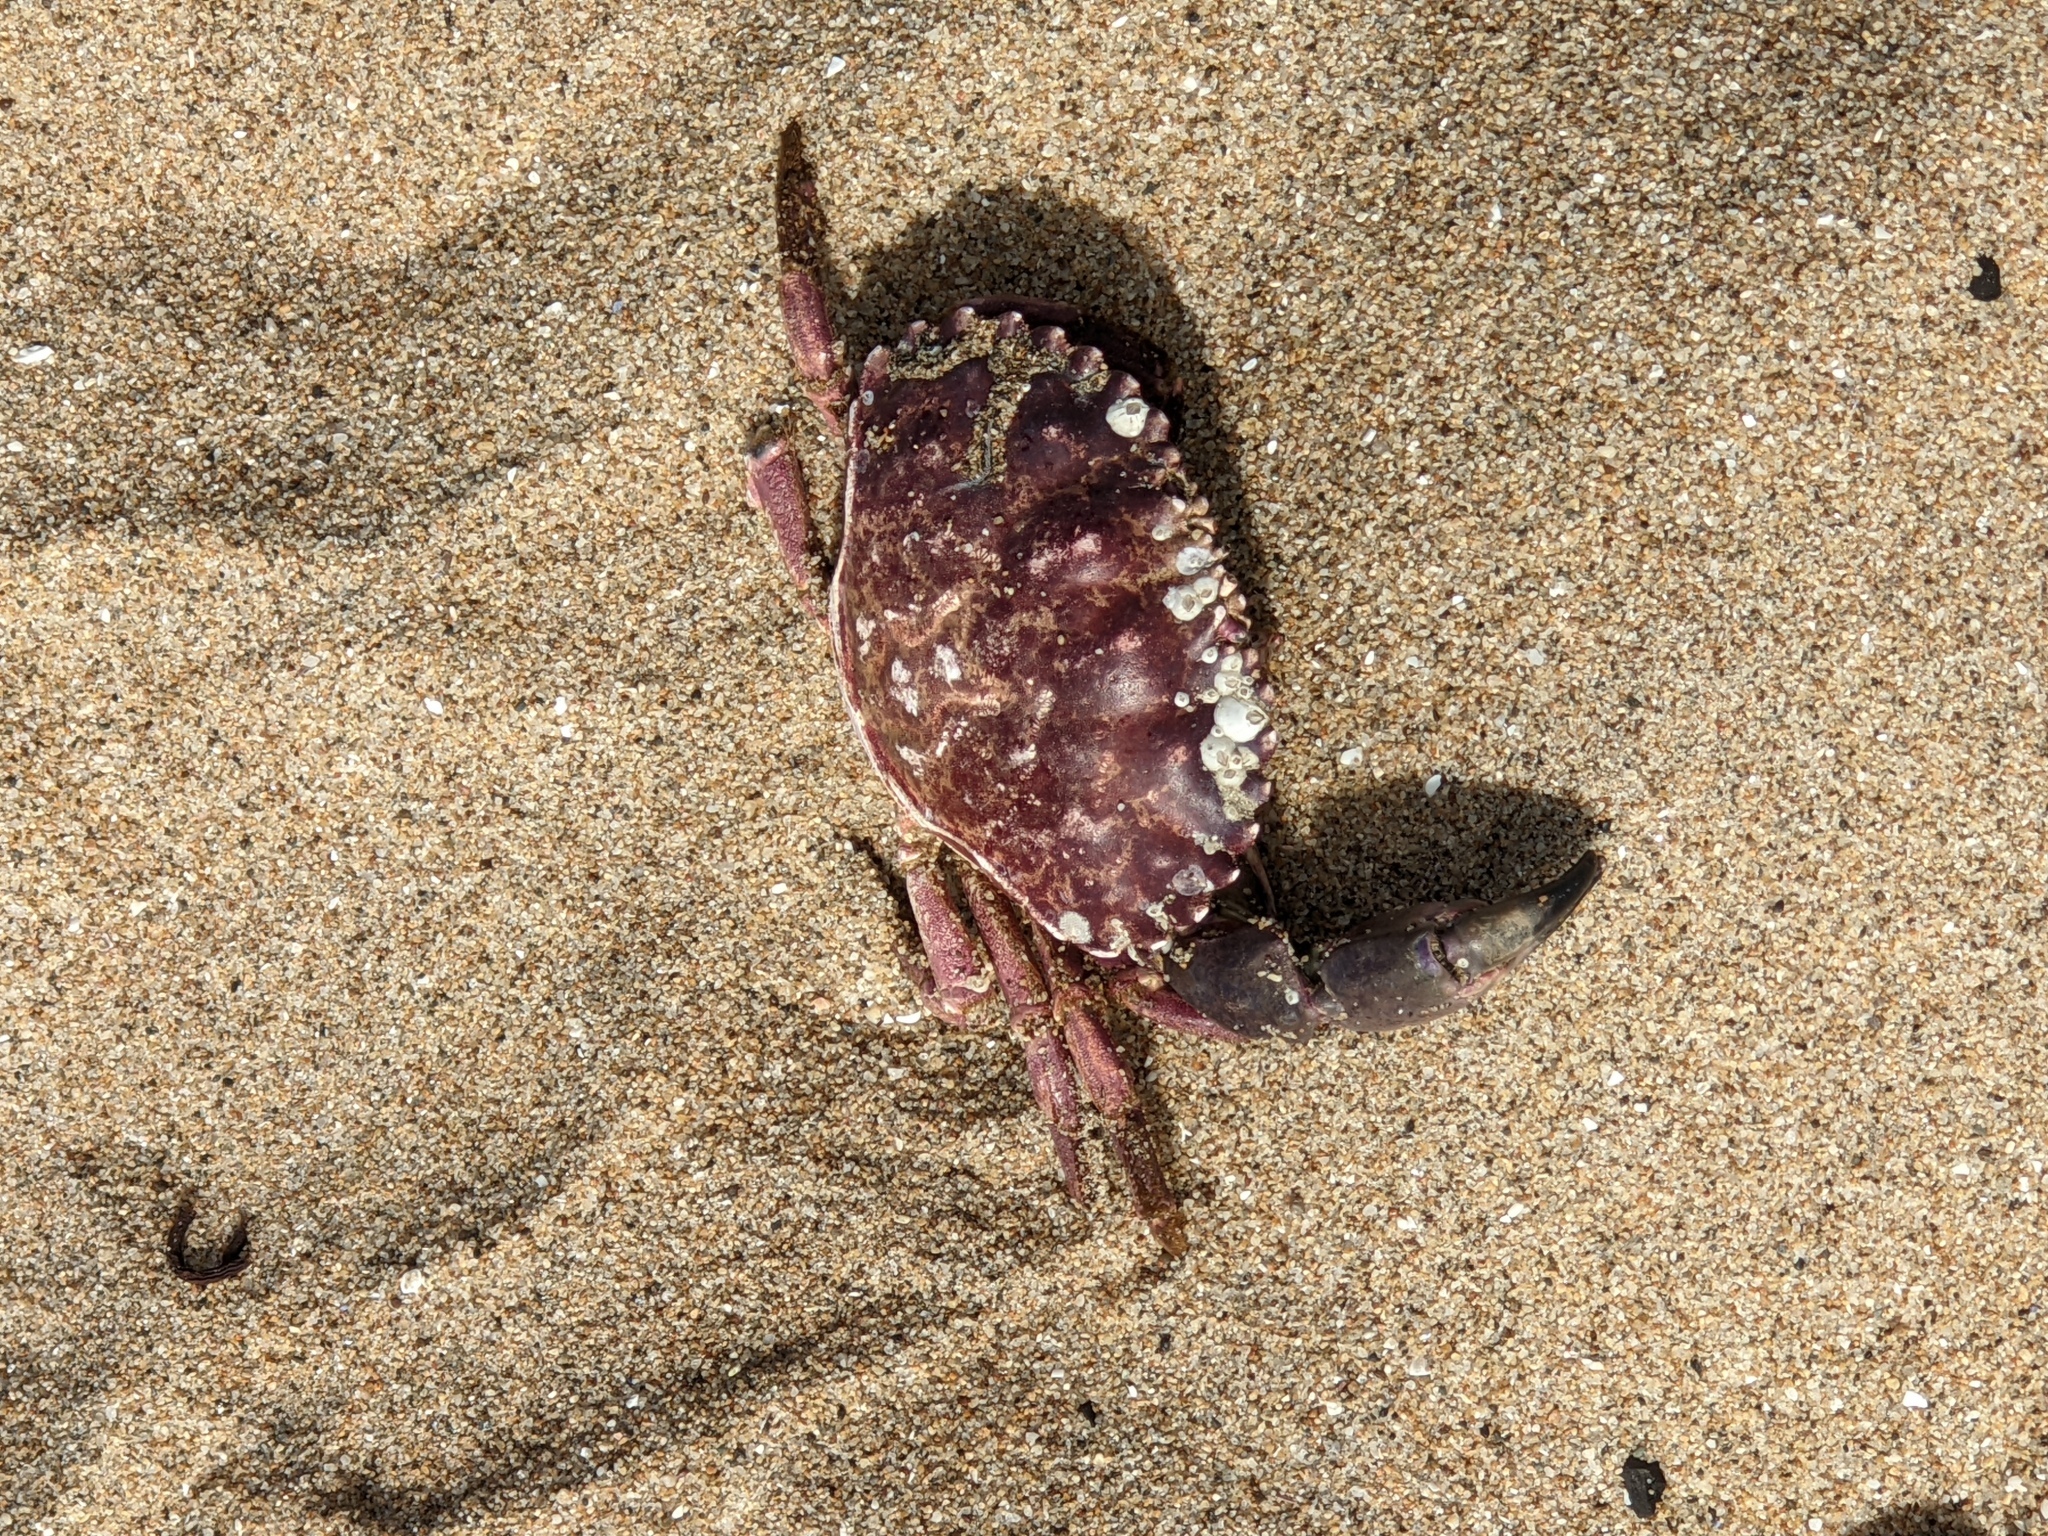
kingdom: Animalia
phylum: Arthropoda
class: Malacostraca
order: Decapoda
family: Cancridae
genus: Romaleon
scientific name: Romaleon antennarium
